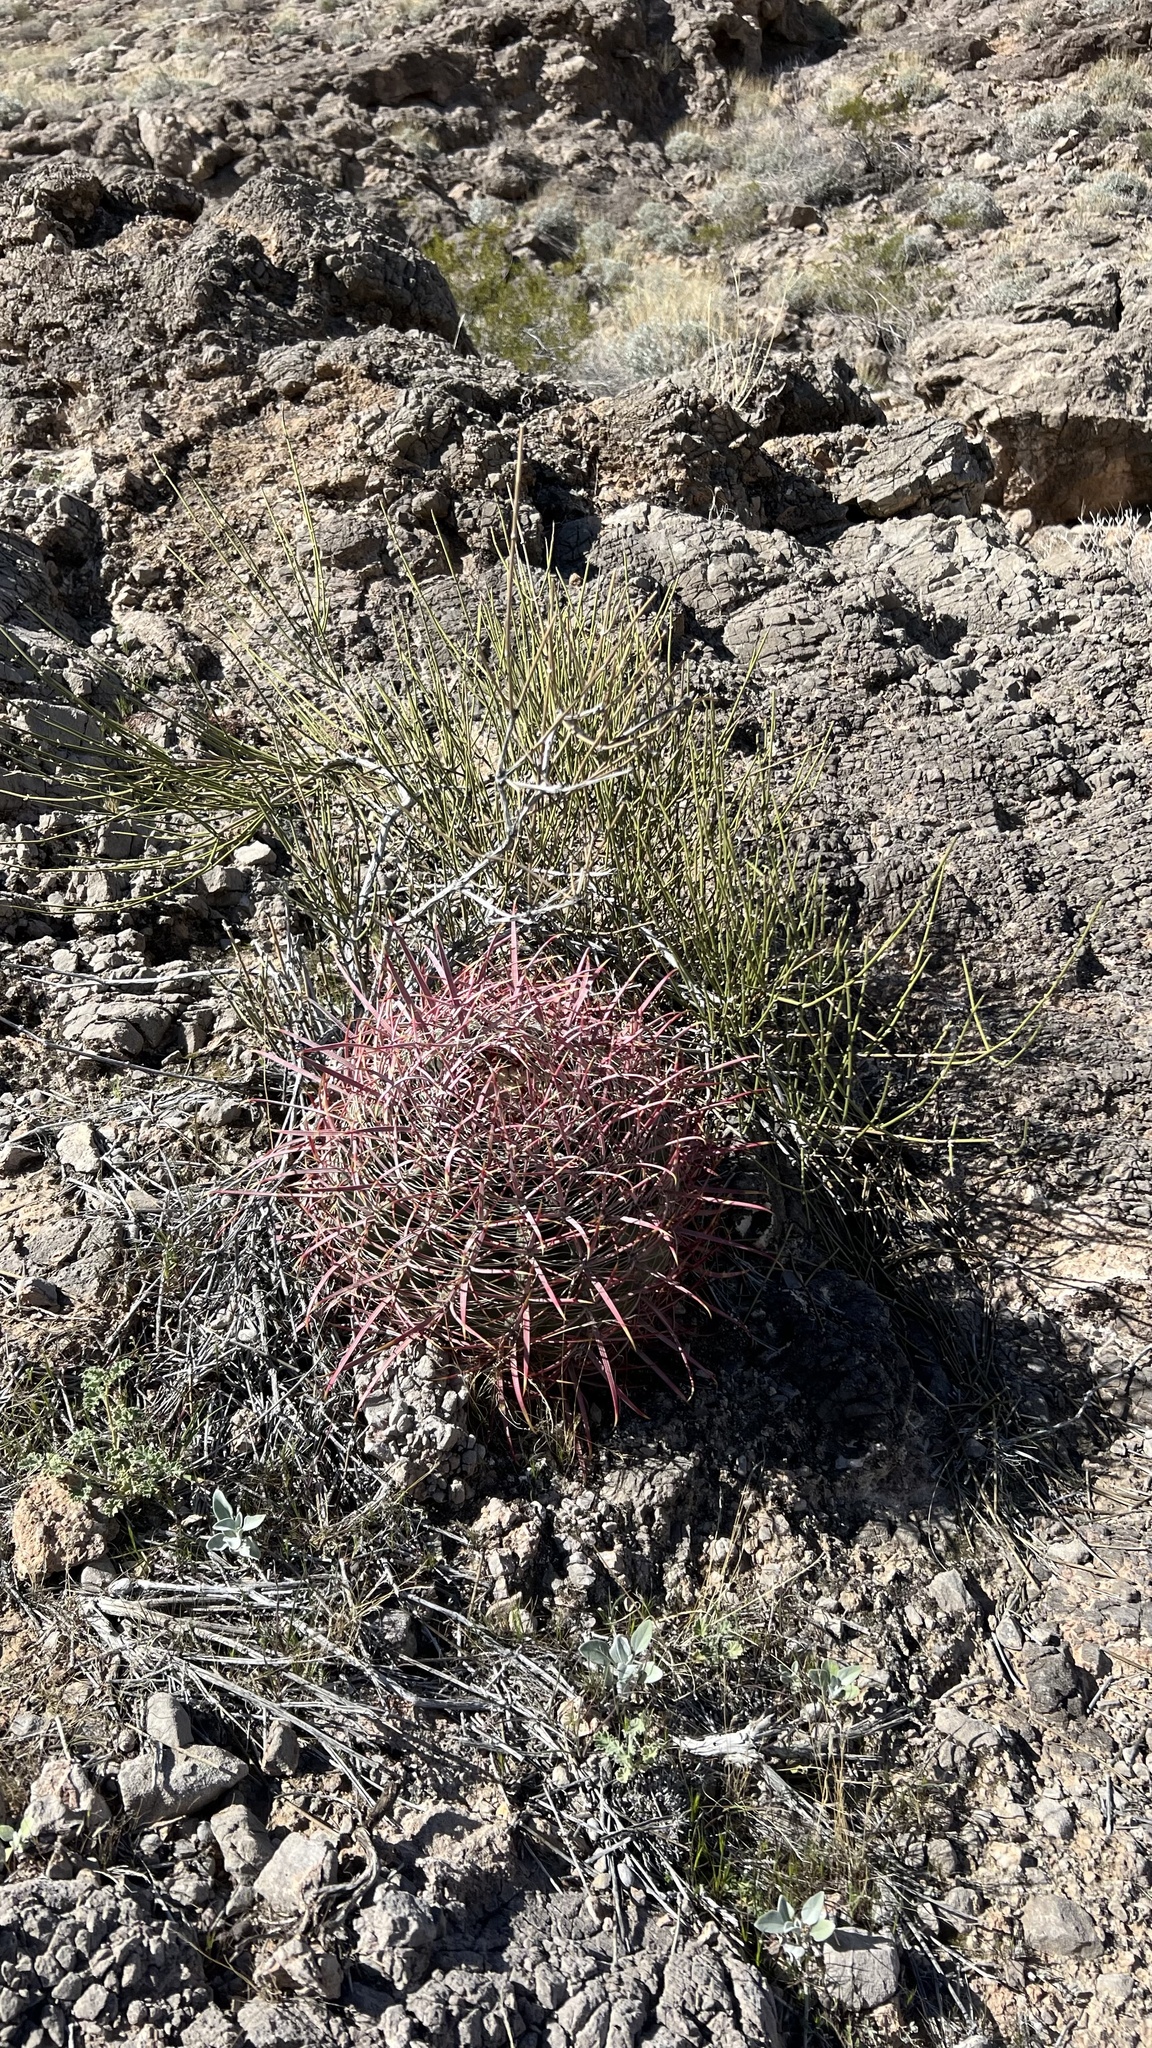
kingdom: Plantae
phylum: Tracheophyta
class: Magnoliopsida
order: Caryophyllales
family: Cactaceae
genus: Ferocactus
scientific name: Ferocactus cylindraceus
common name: California barrel cactus
